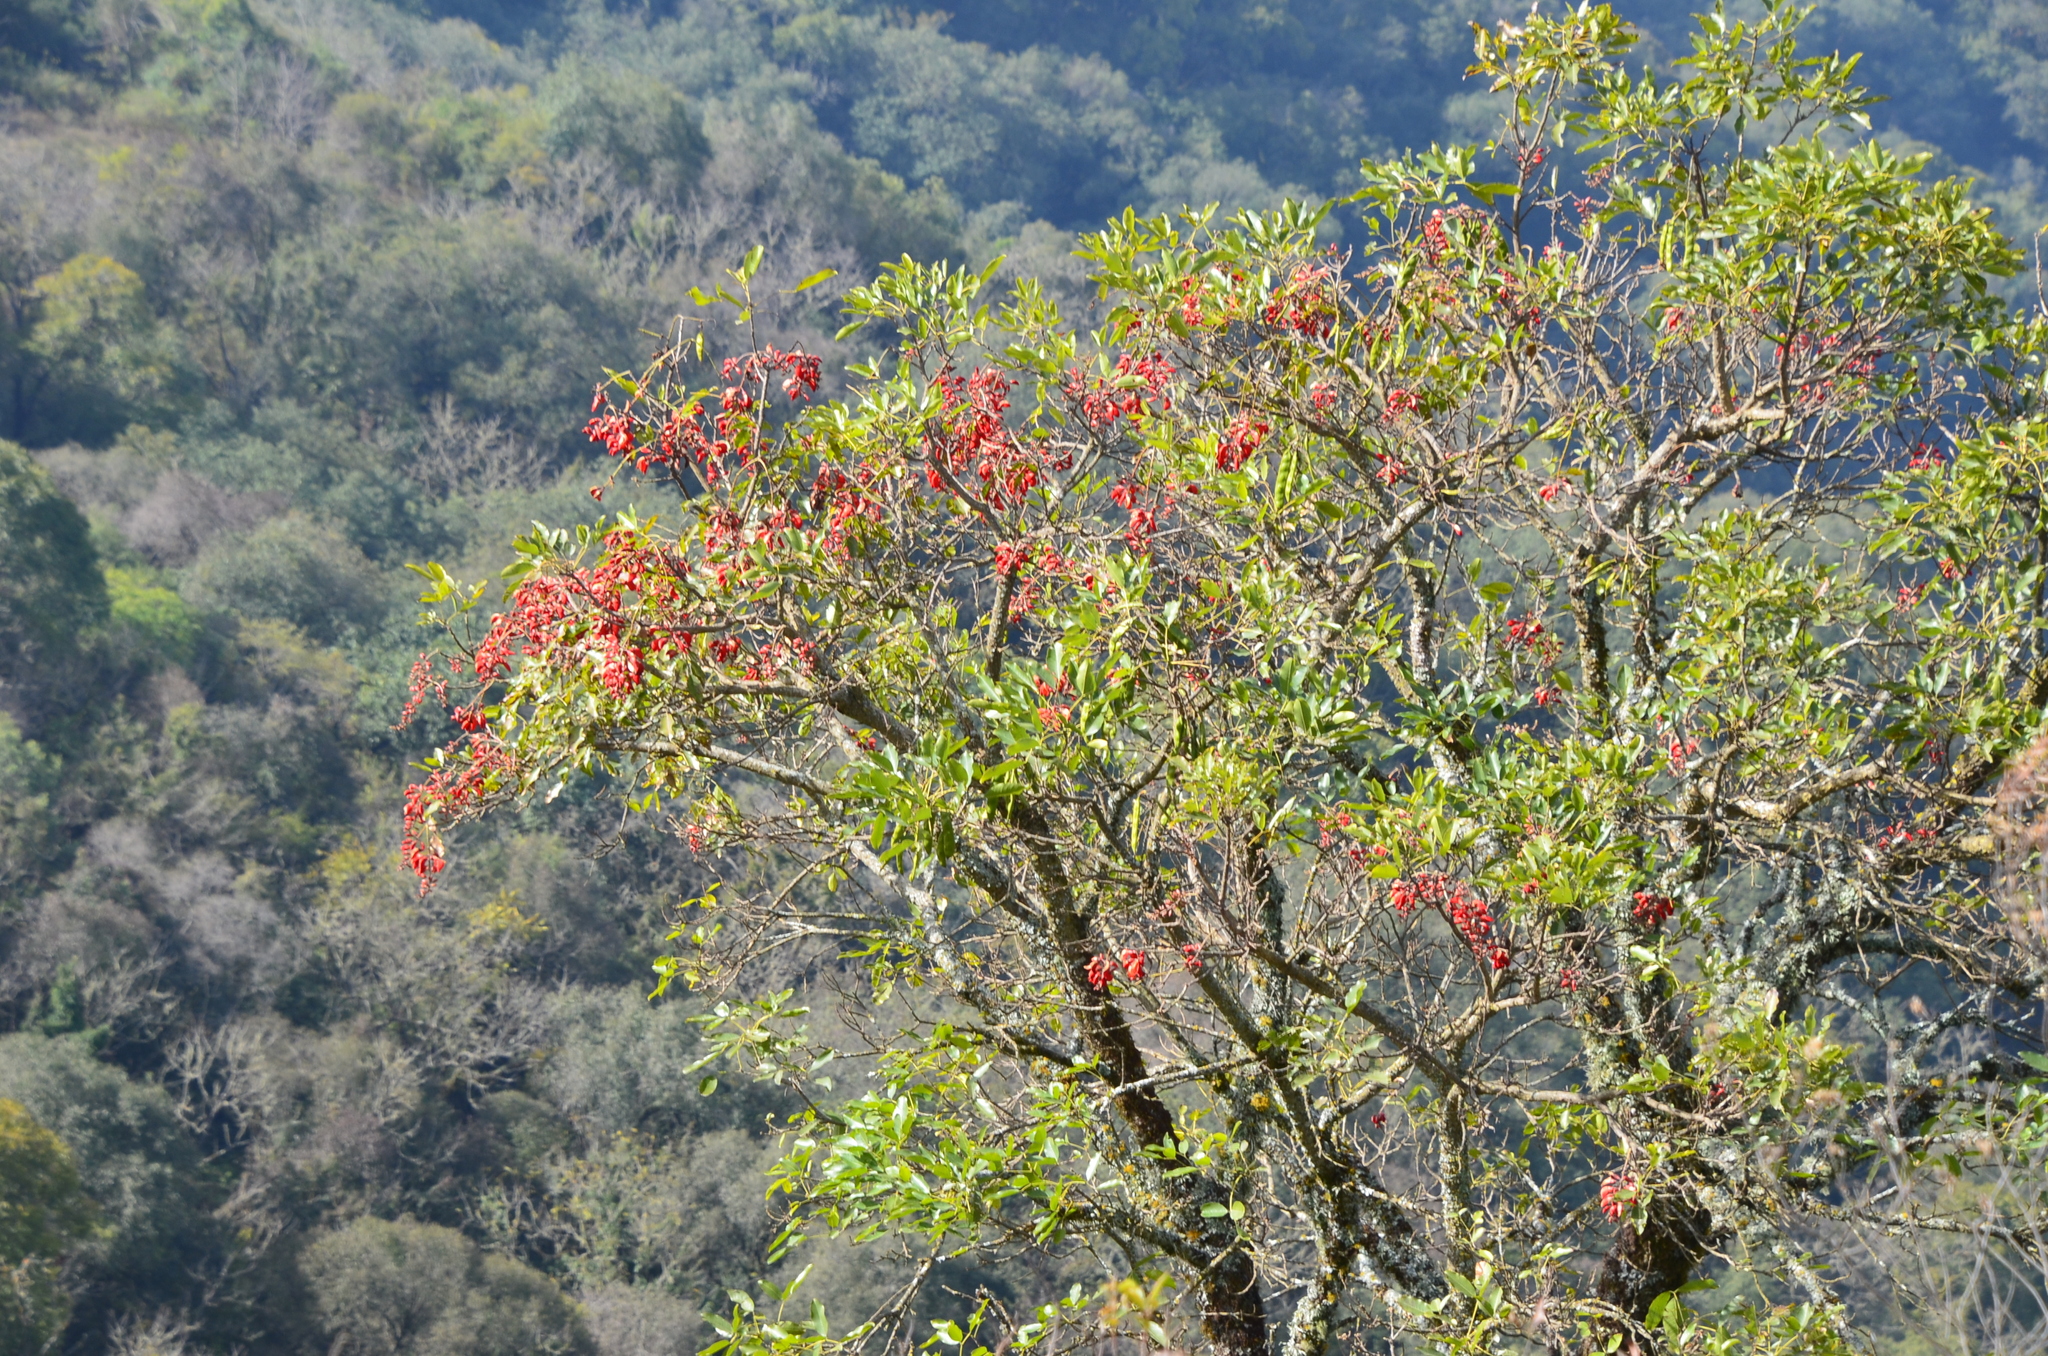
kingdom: Plantae
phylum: Tracheophyta
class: Magnoliopsida
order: Fabales
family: Fabaceae
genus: Erythrina
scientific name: Erythrina falcata
